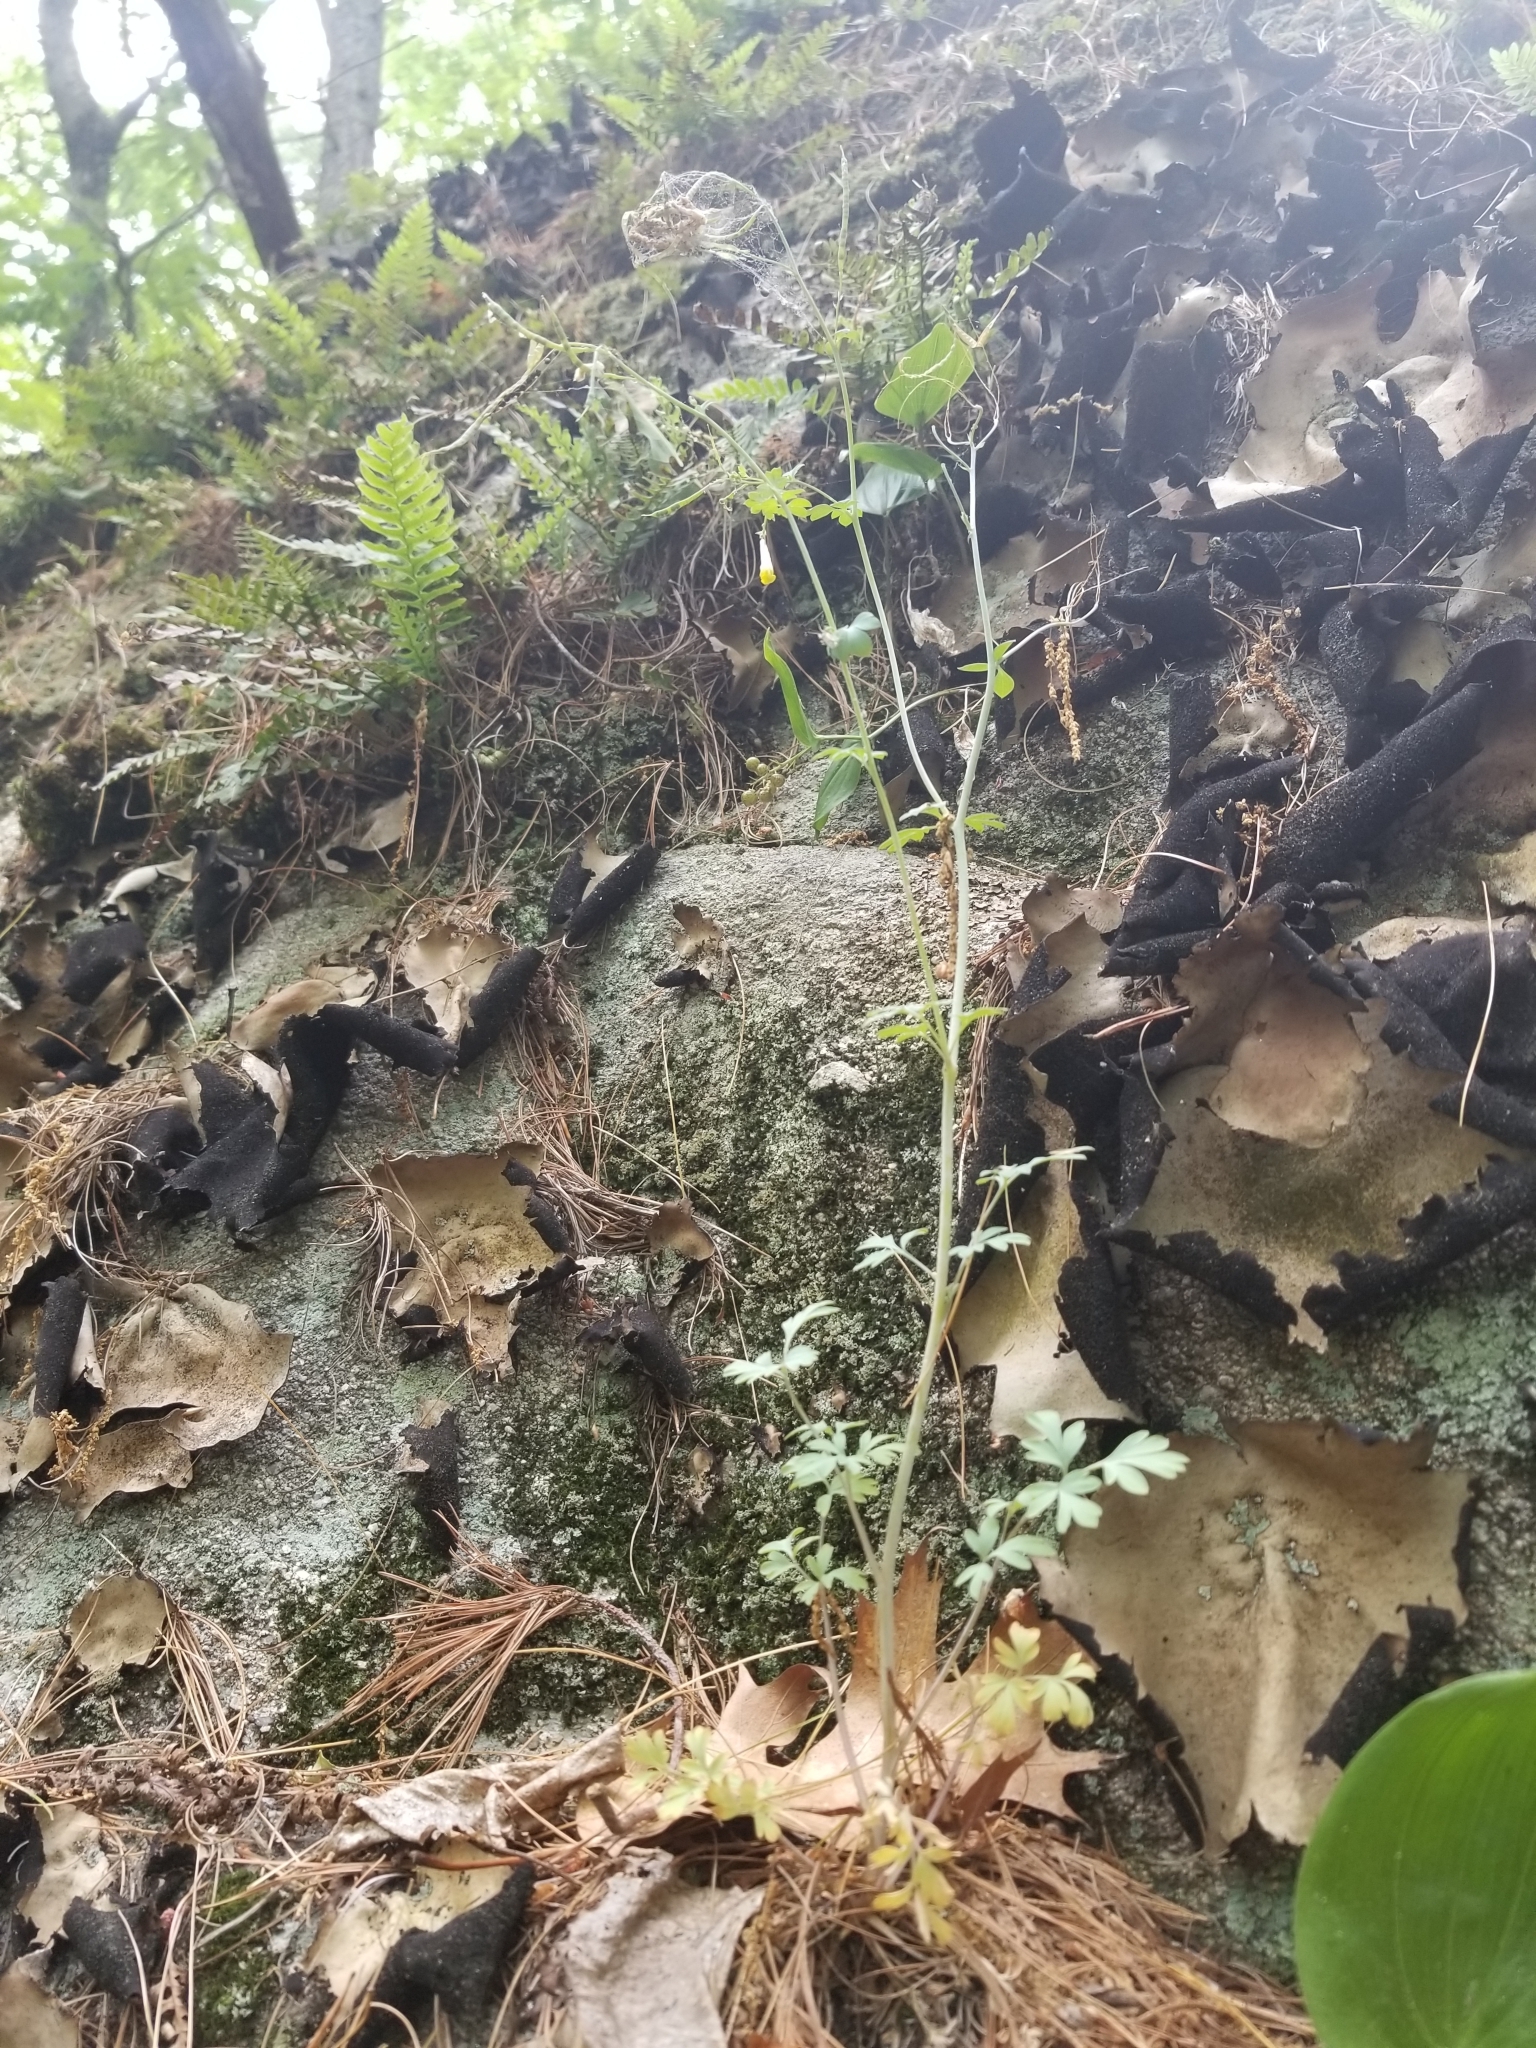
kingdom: Plantae
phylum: Tracheophyta
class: Magnoliopsida
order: Ranunculales
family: Papaveraceae
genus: Capnoides
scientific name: Capnoides sempervirens
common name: Rock harlequin
